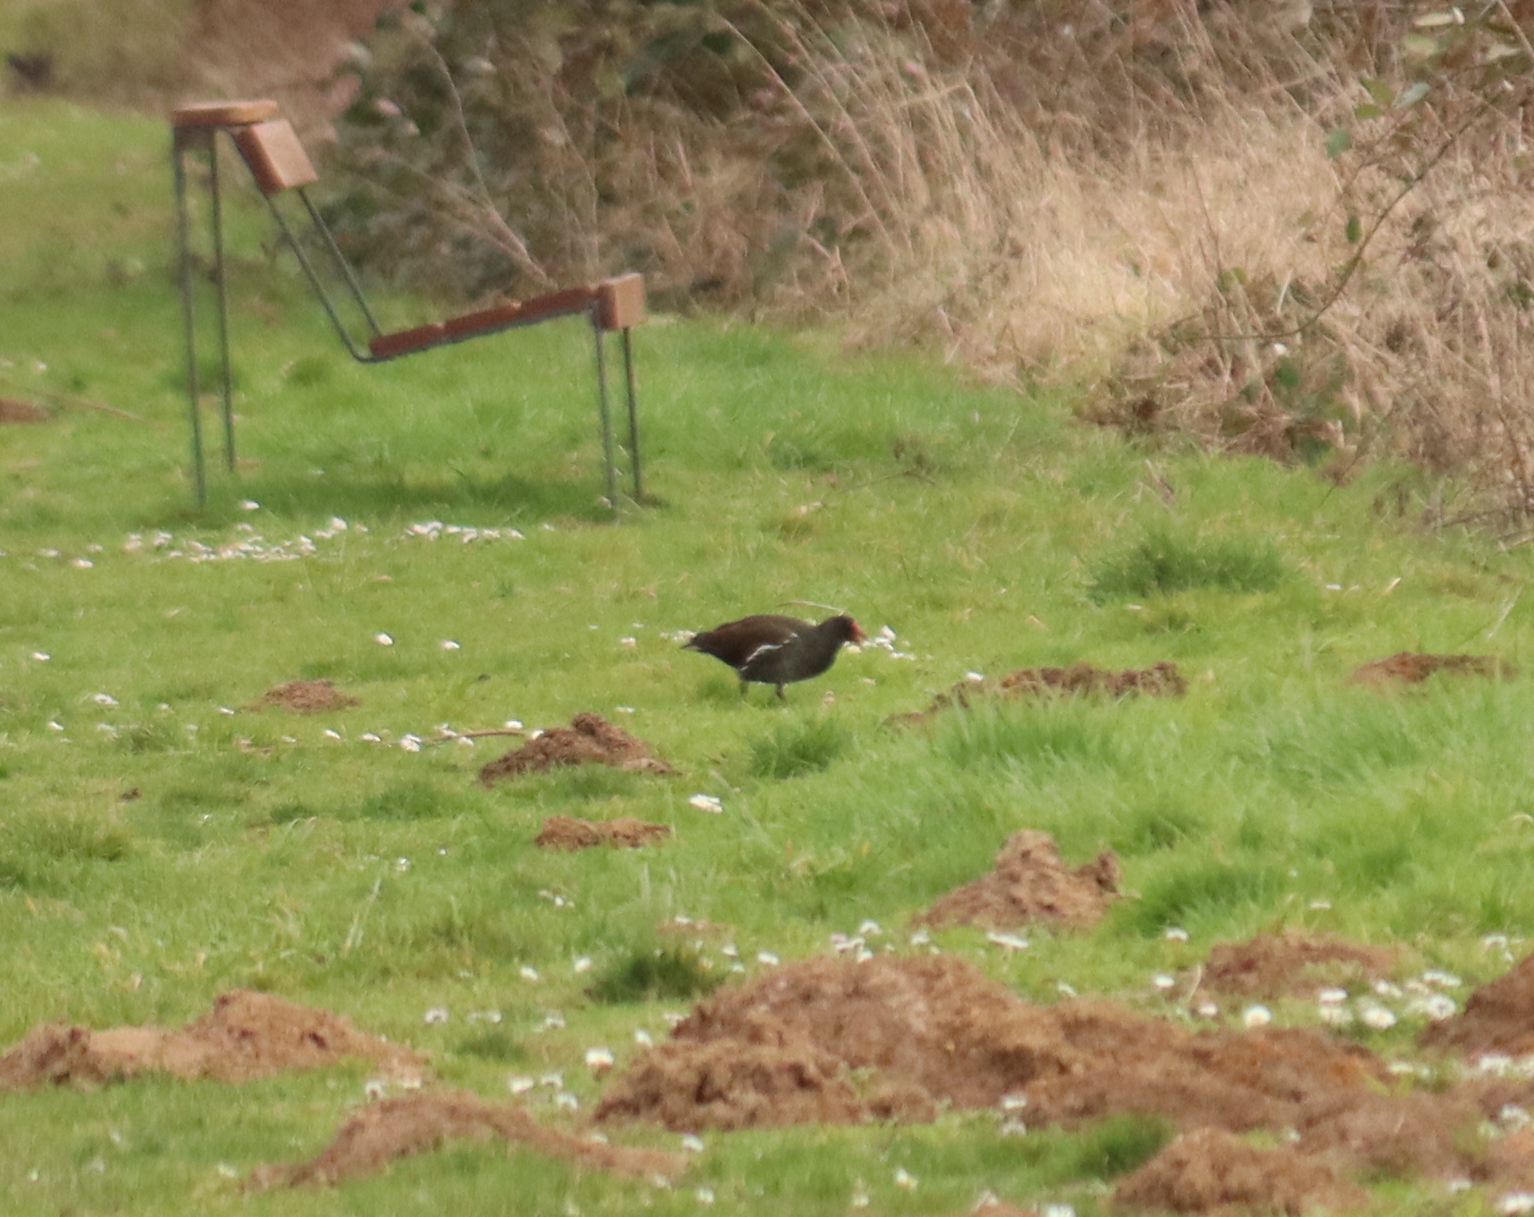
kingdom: Animalia
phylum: Chordata
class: Aves
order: Gruiformes
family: Rallidae
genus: Gallinula
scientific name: Gallinula chloropus
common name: Common moorhen
